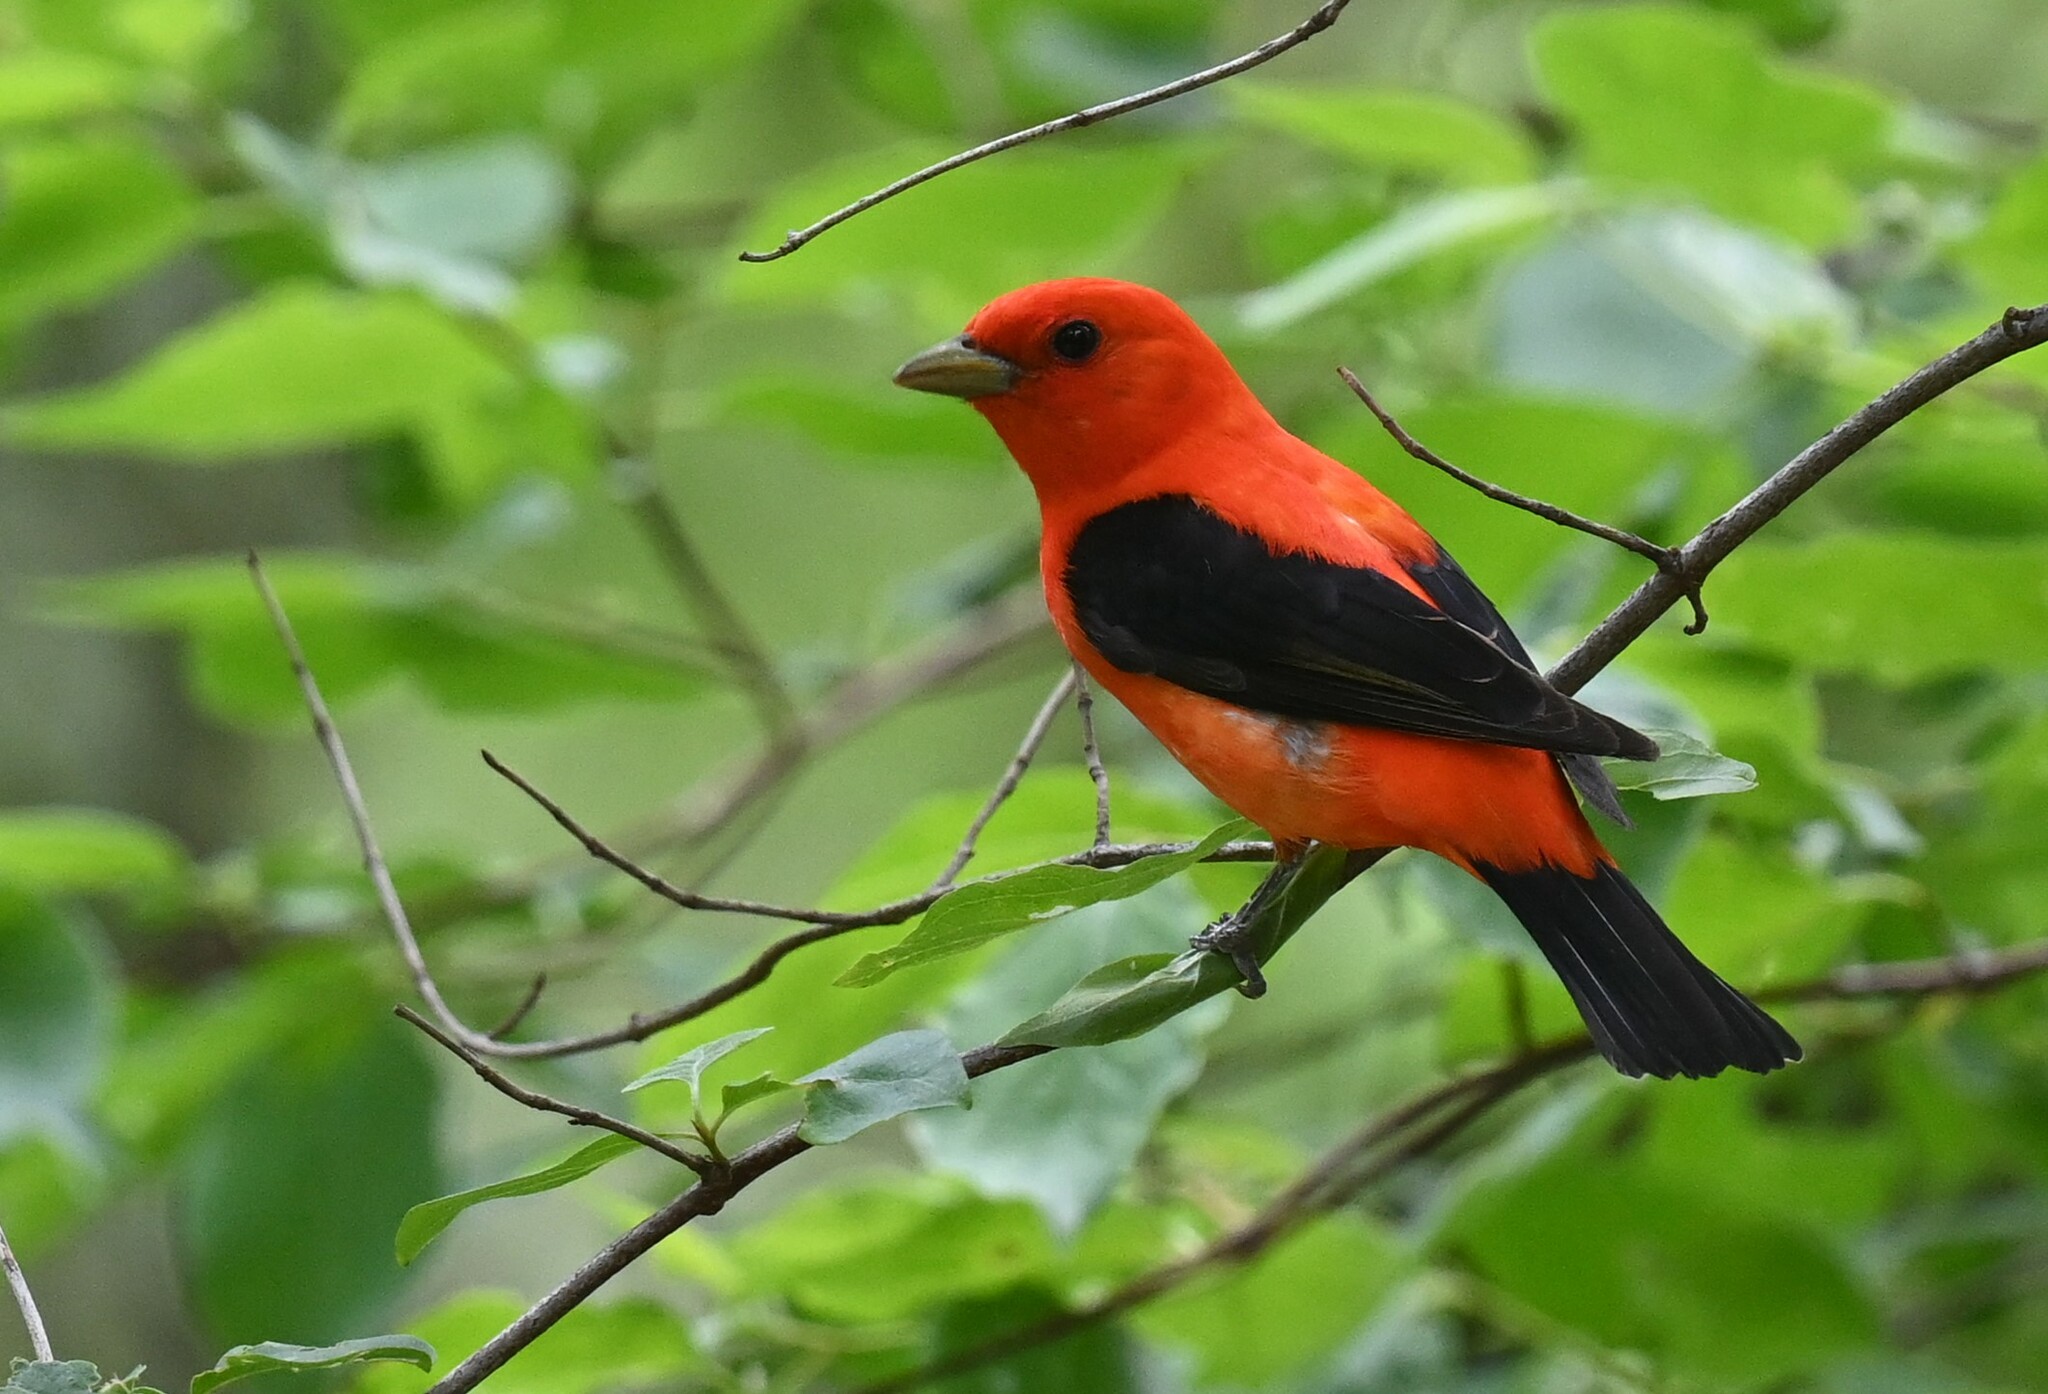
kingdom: Animalia
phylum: Chordata
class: Aves
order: Passeriformes
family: Cardinalidae
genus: Piranga
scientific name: Piranga olivacea
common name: Scarlet tanager
